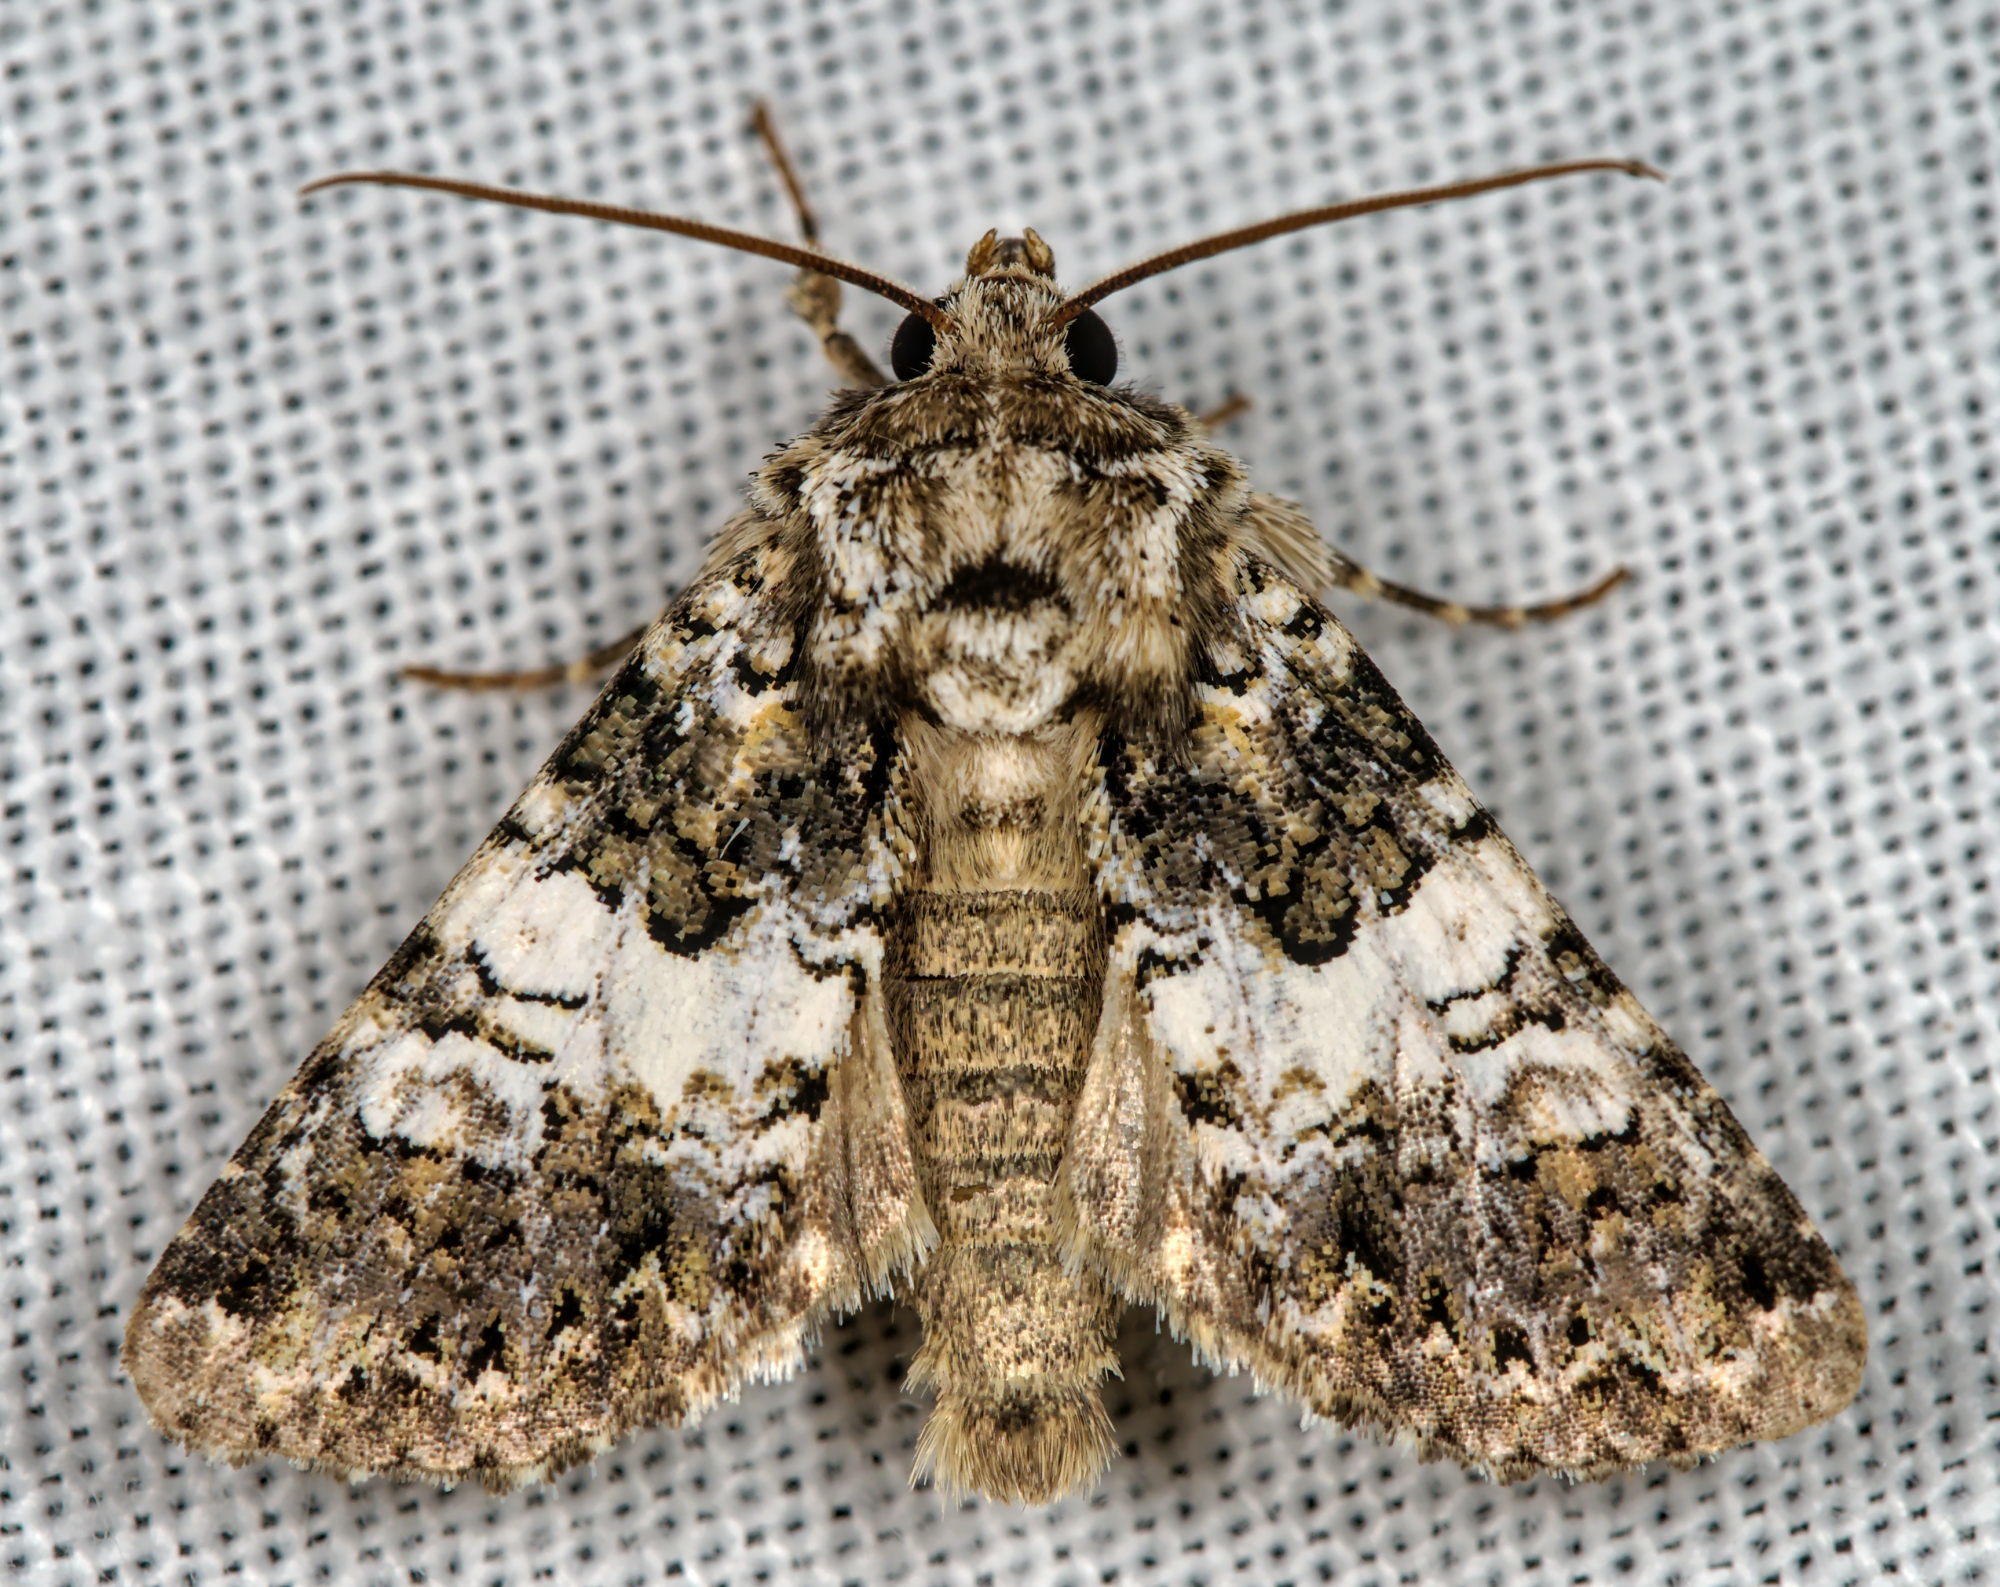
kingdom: Animalia
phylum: Arthropoda
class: Insecta
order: Lepidoptera
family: Noctuidae
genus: Hadena
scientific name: Hadena compta
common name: Varied coronet
